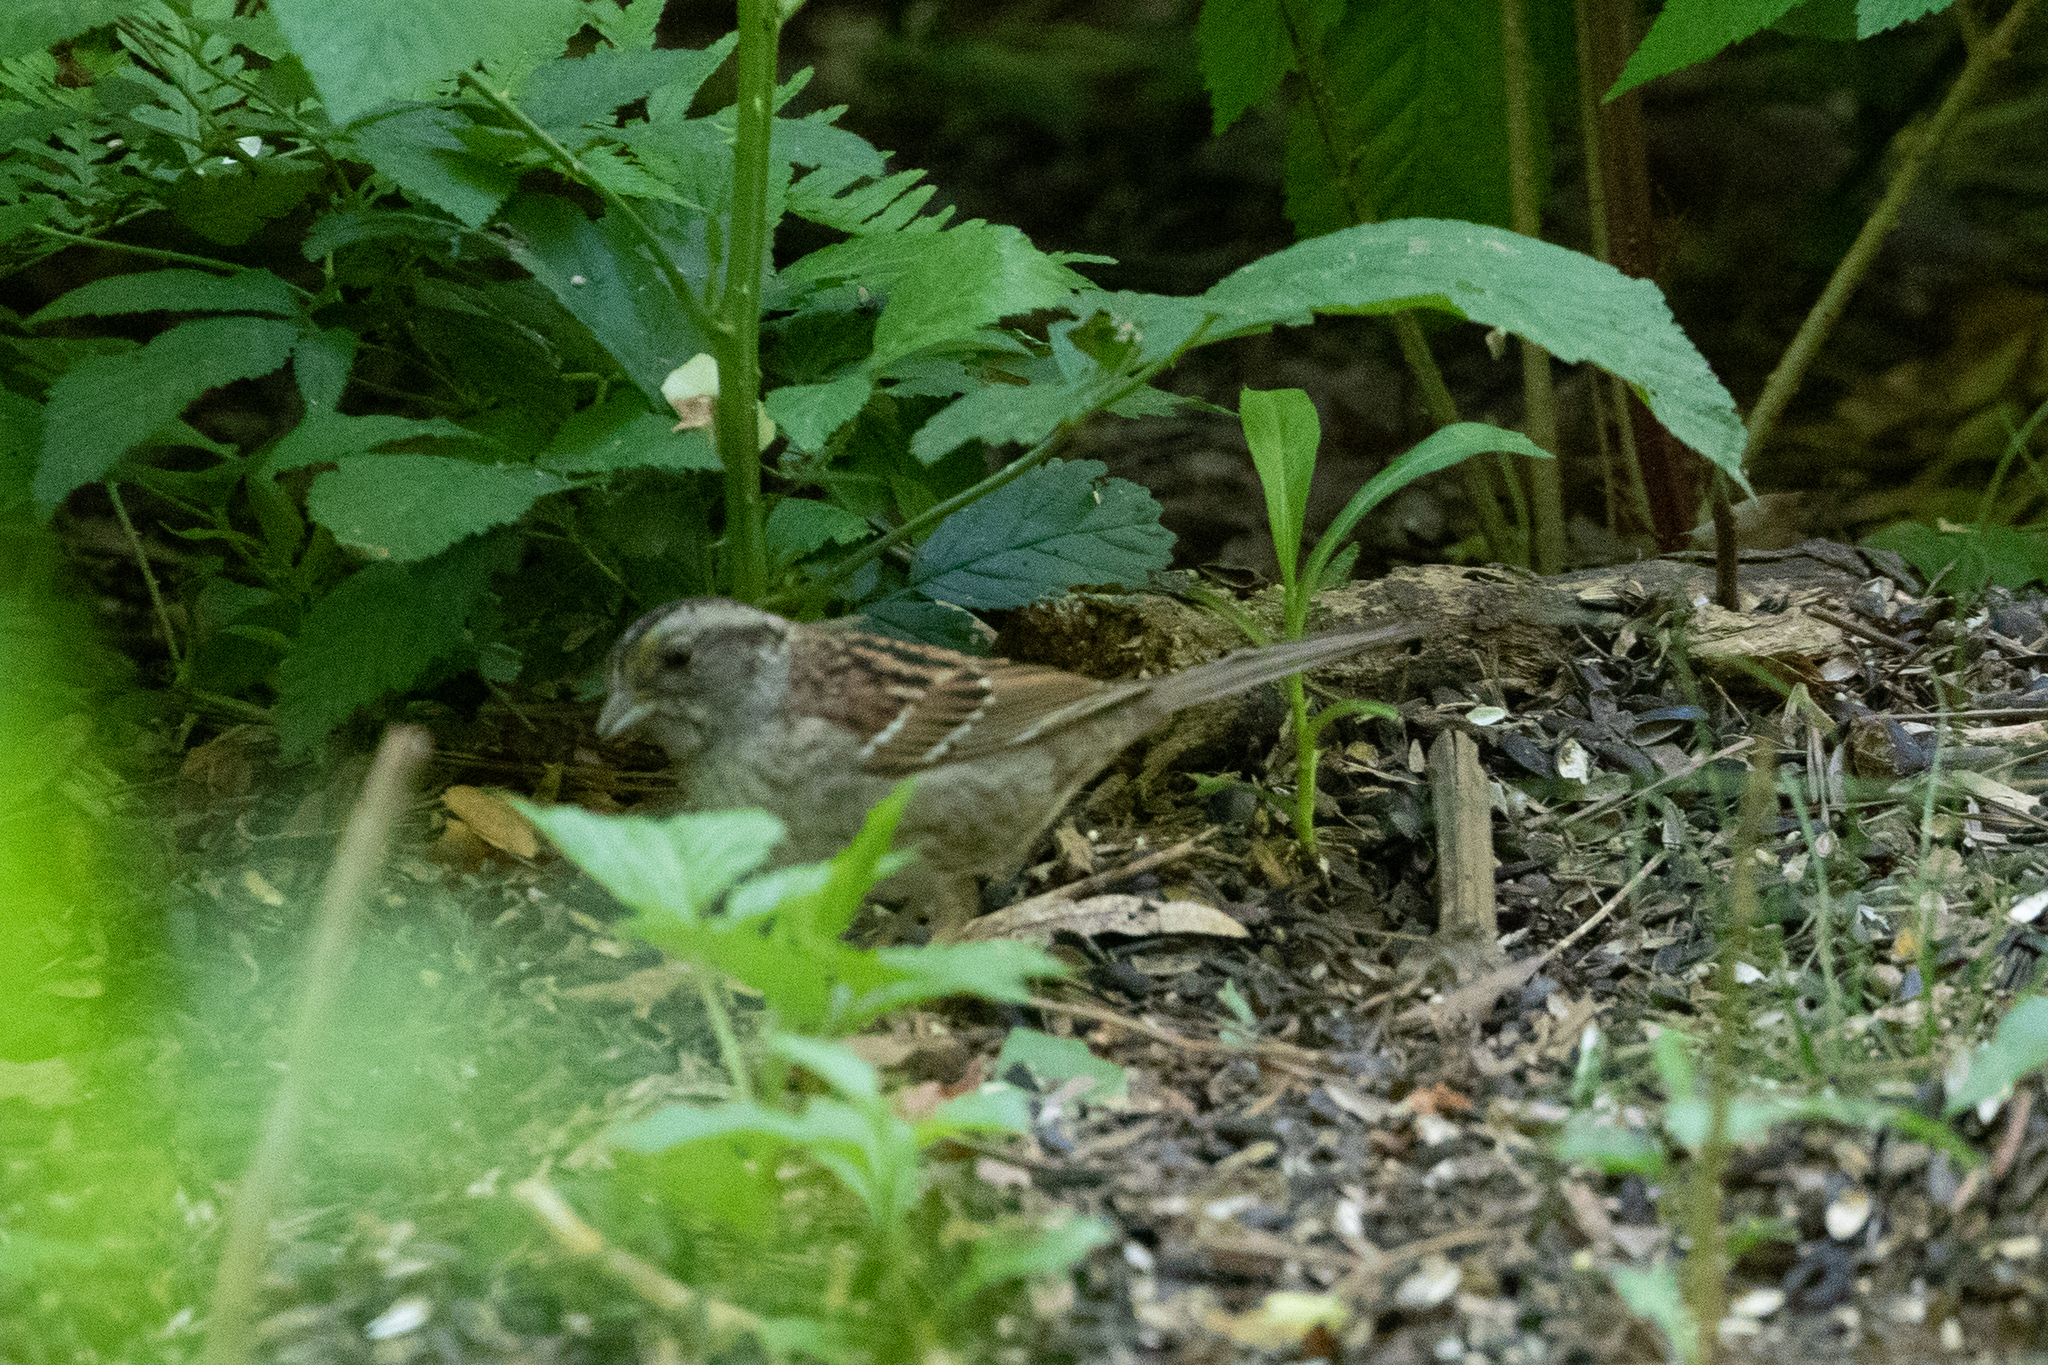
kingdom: Animalia
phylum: Chordata
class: Aves
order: Passeriformes
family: Passerellidae
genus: Zonotrichia
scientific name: Zonotrichia albicollis
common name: White-throated sparrow
